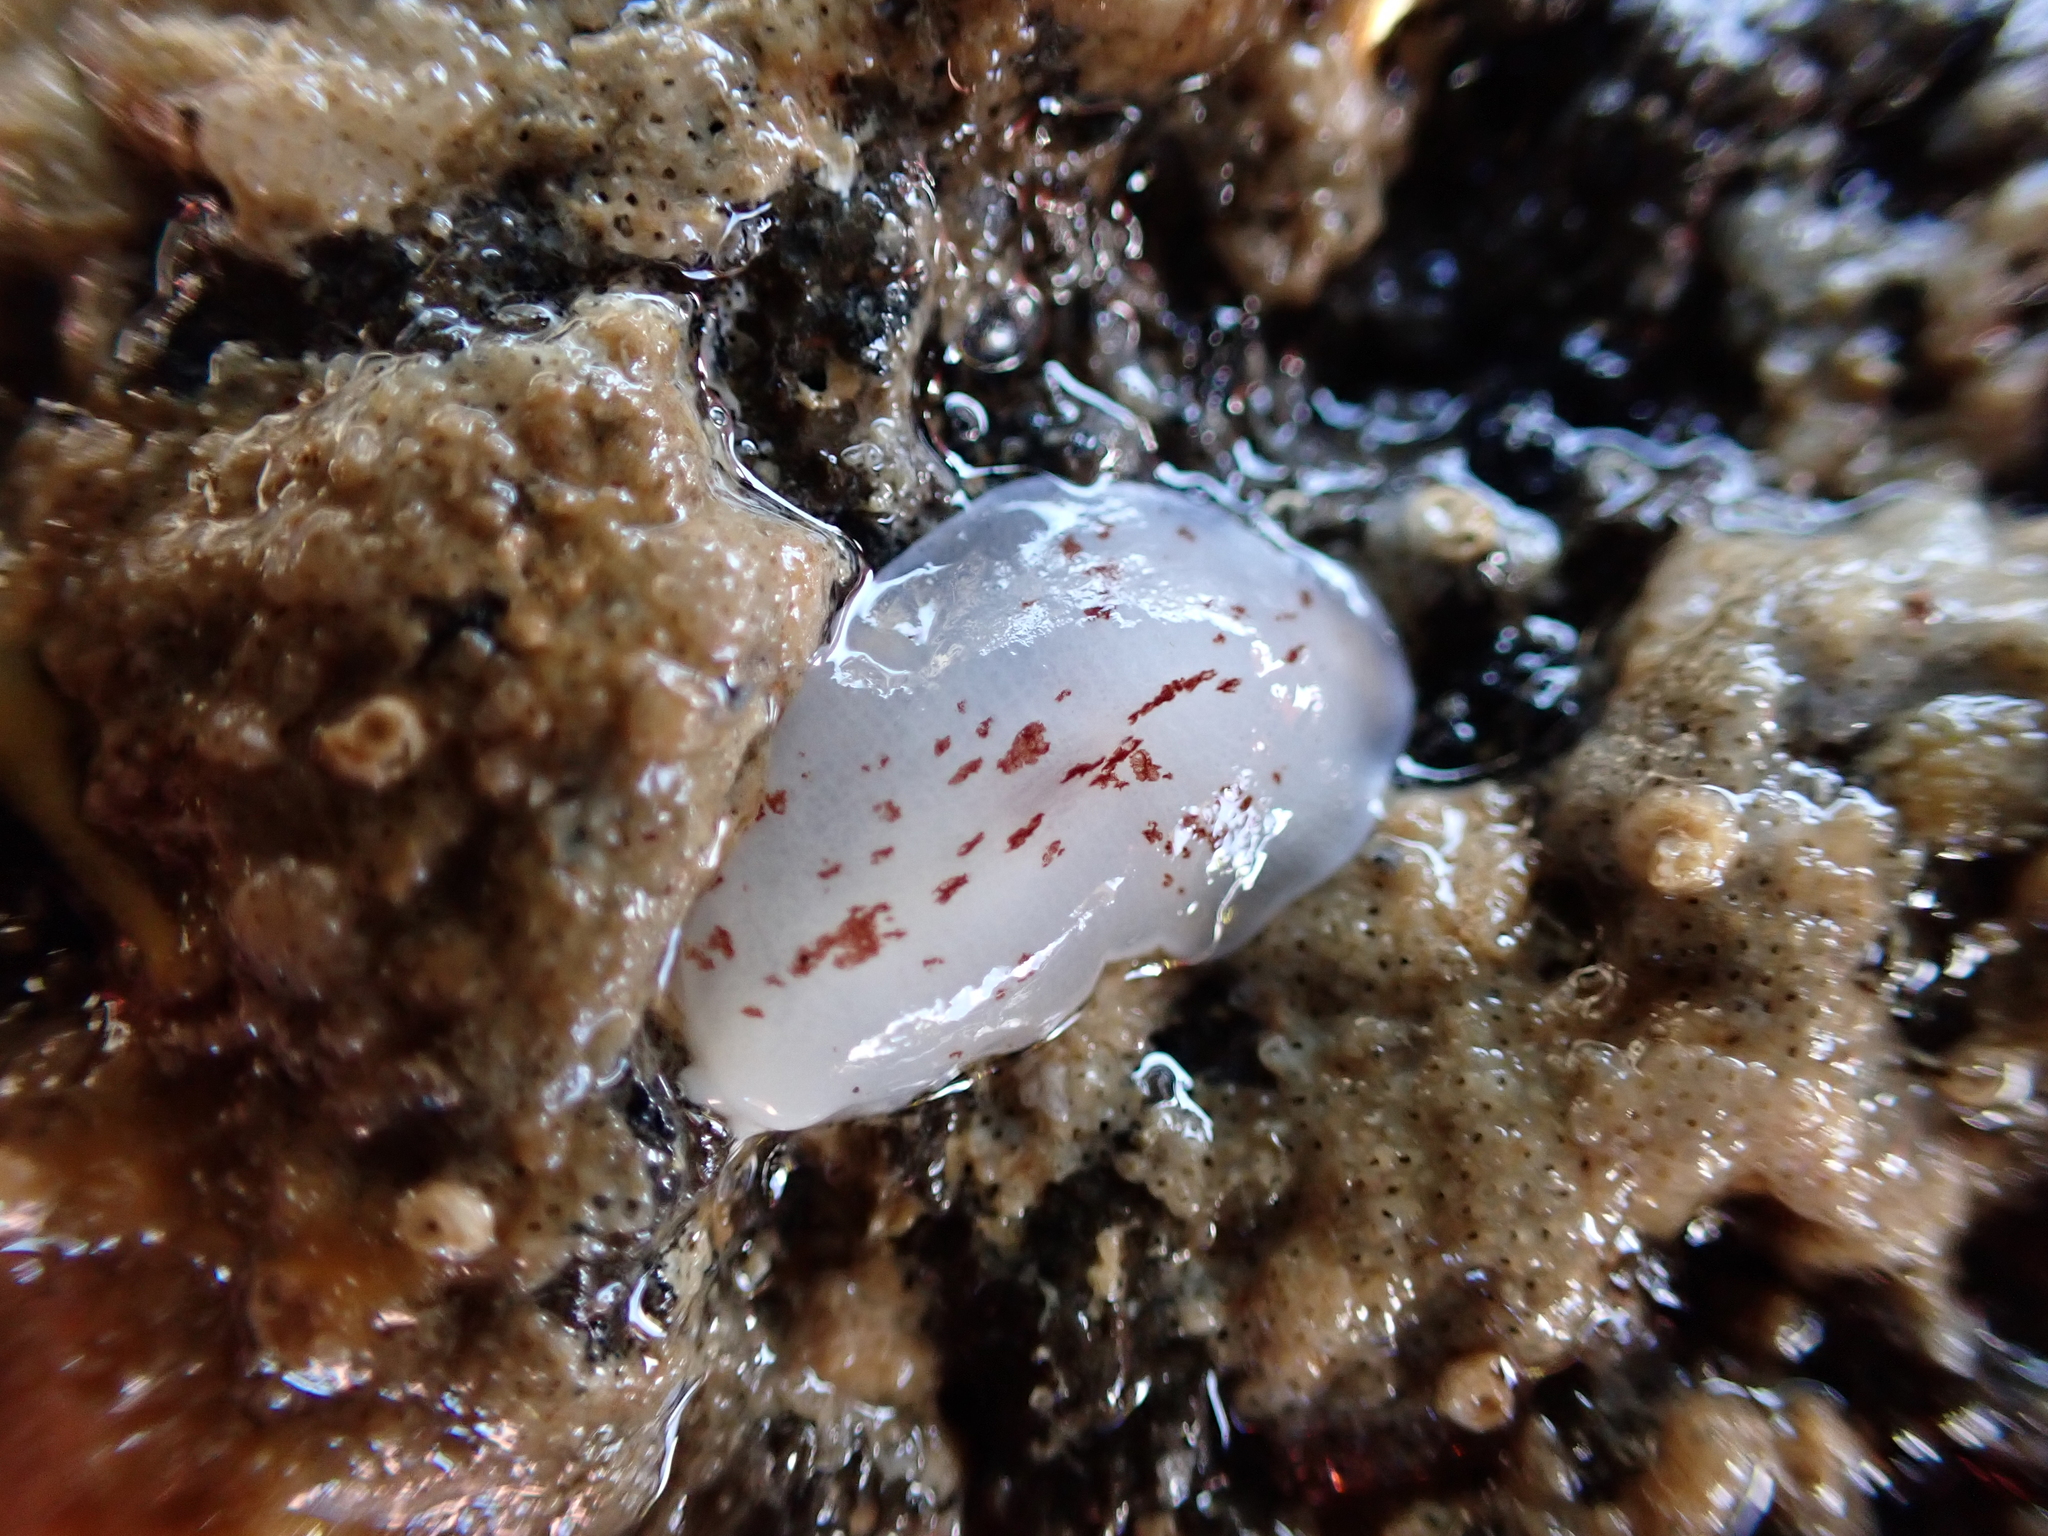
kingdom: Animalia
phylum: Mollusca
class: Gastropoda
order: Pleurobranchida
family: Pleurobranchidae
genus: Berthella
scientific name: Berthella ornata
